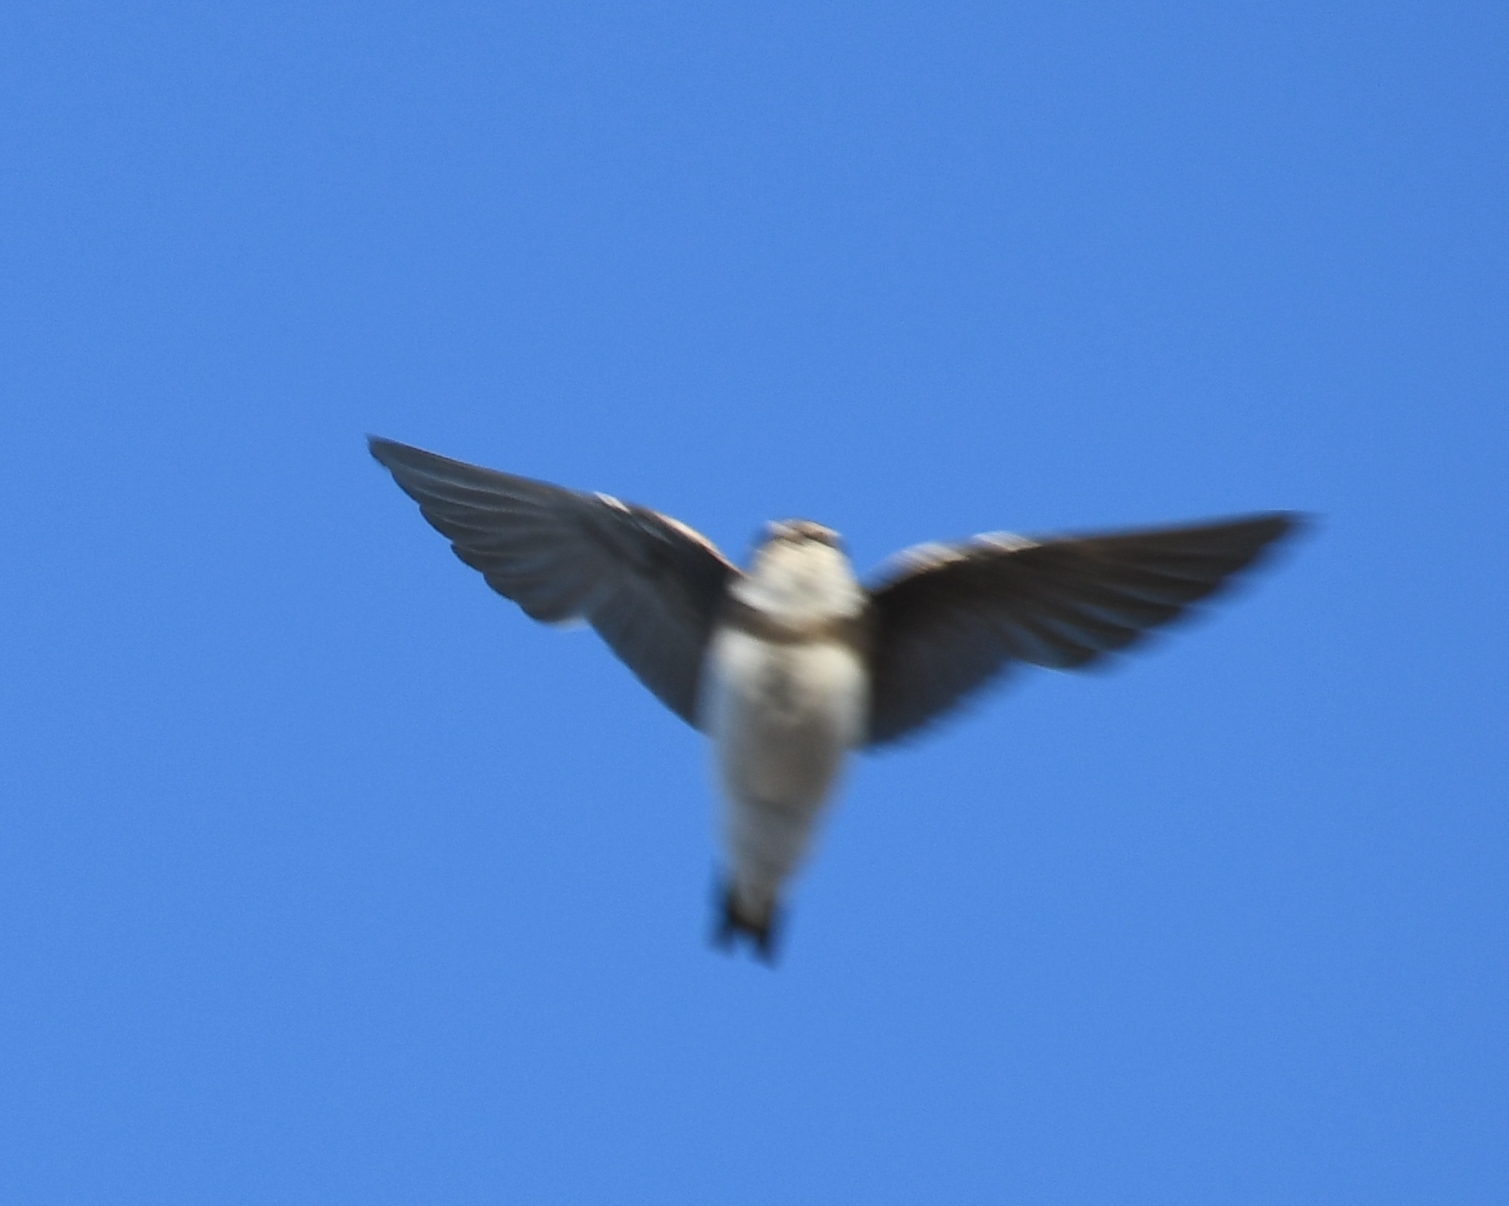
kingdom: Animalia
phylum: Chordata
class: Aves
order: Passeriformes
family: Hirundinidae
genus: Riparia
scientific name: Riparia riparia
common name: Sand martin
